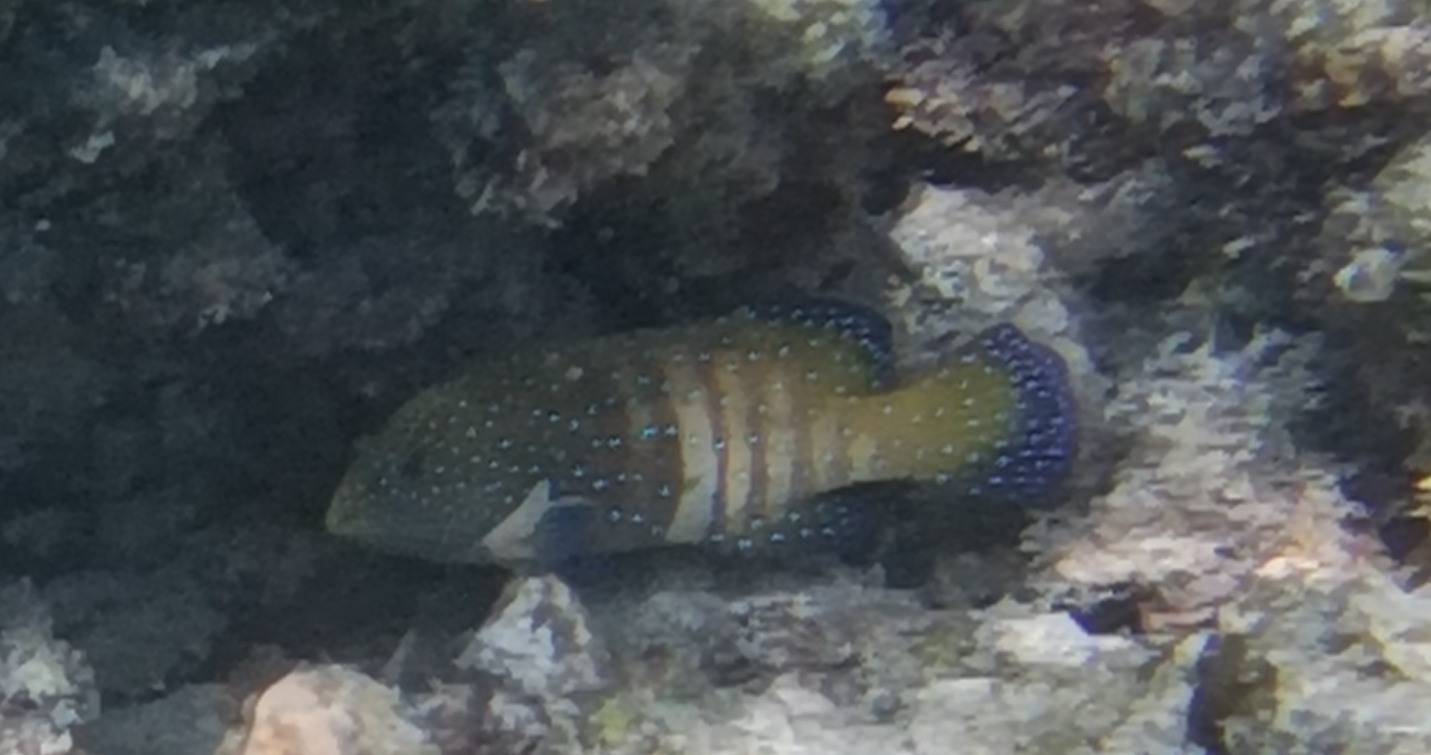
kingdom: Animalia
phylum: Chordata
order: Perciformes
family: Serranidae
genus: Cephalopholis
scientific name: Cephalopholis argus
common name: Peacock grouper
